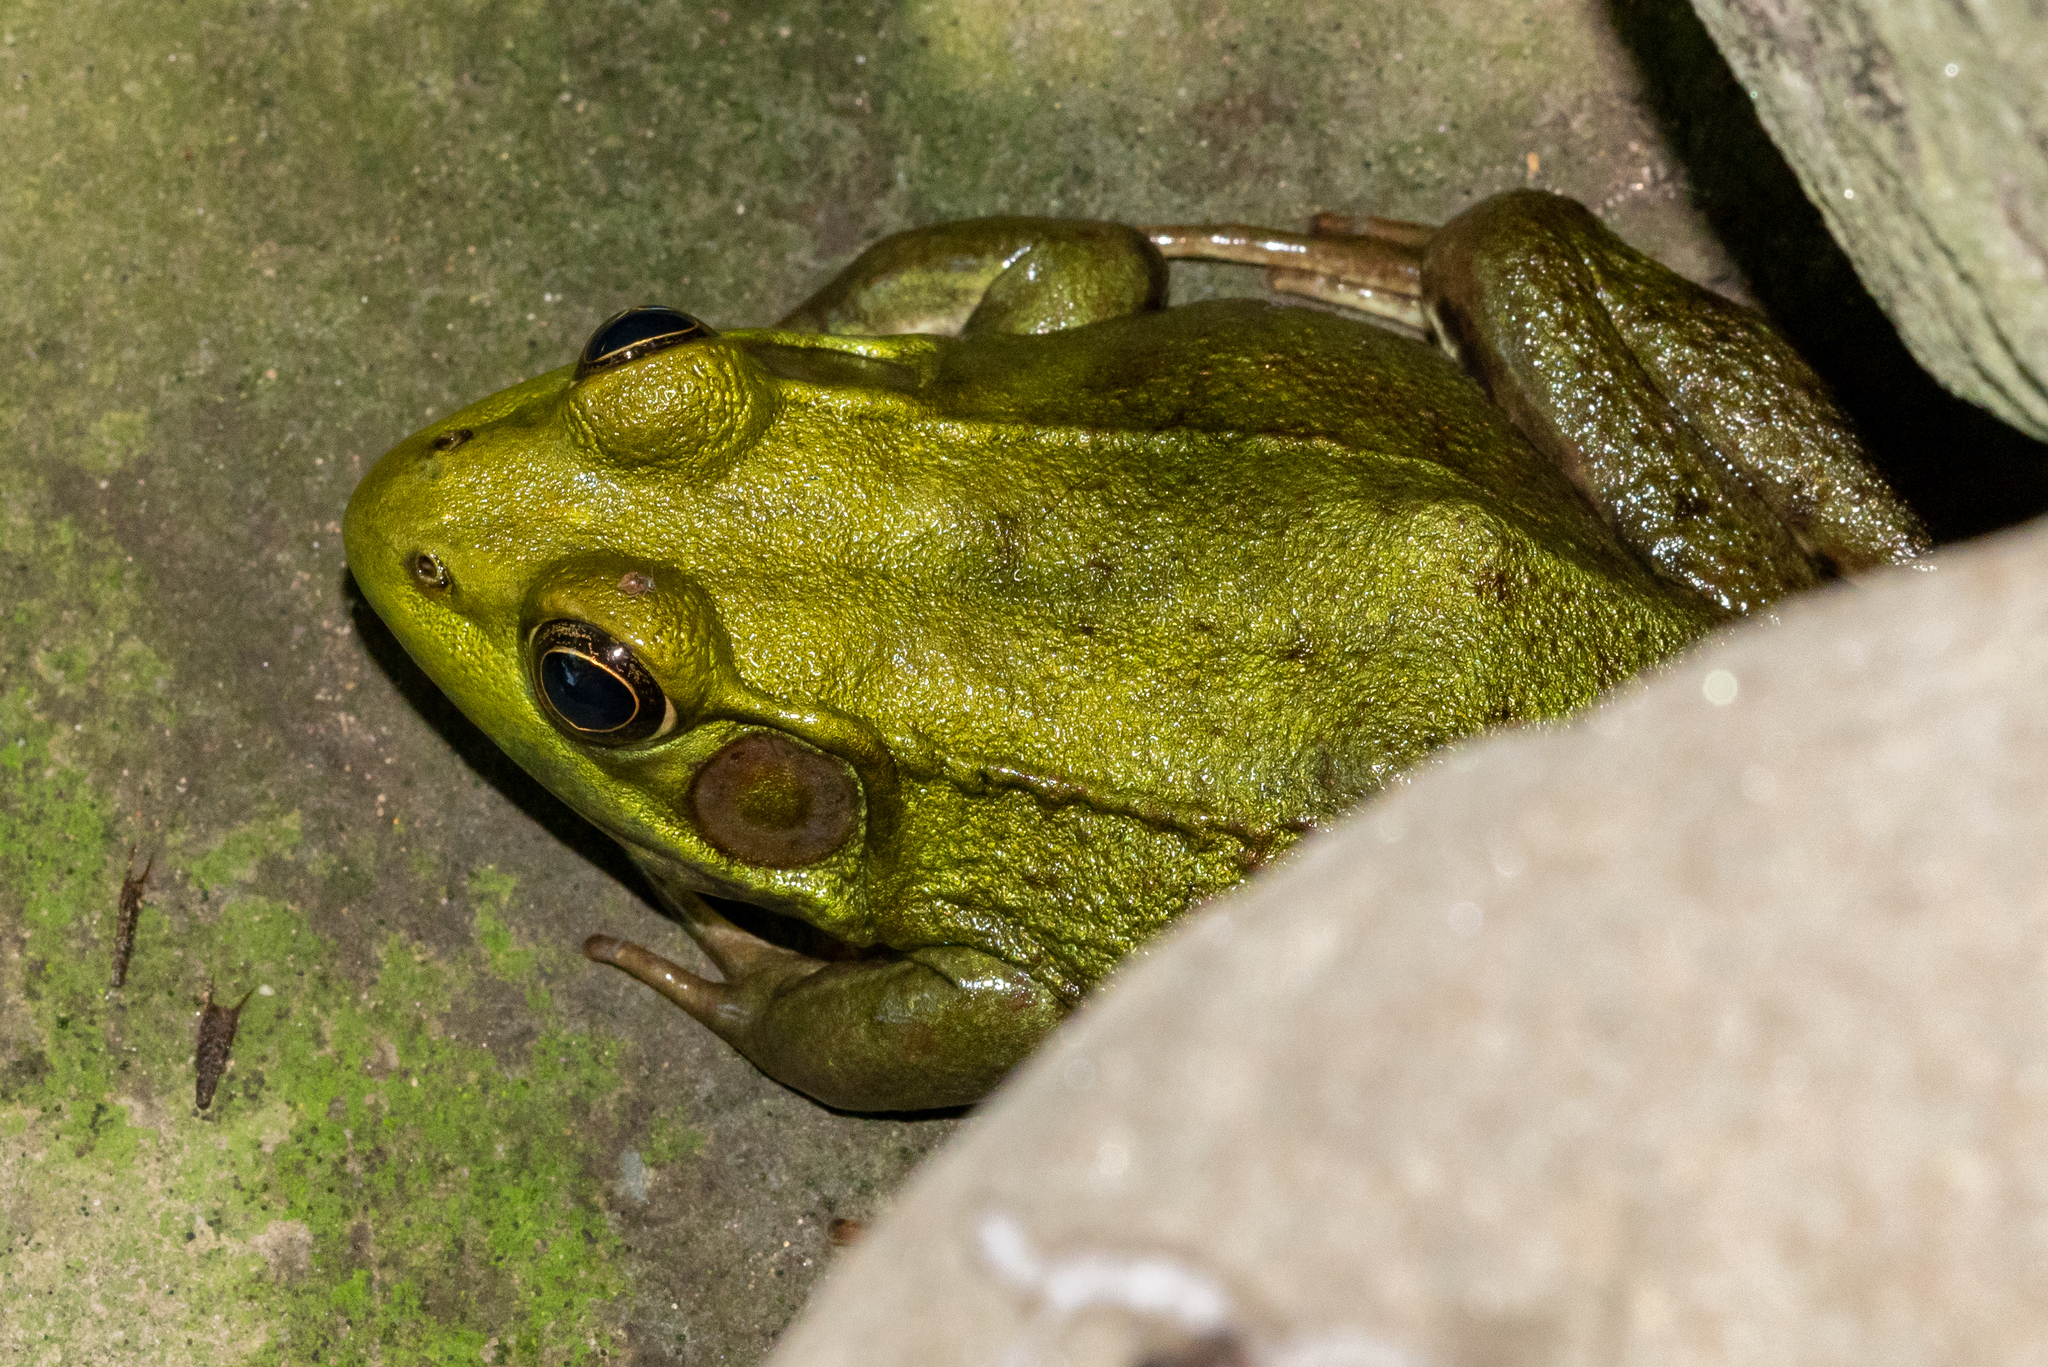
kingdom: Animalia
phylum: Chordata
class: Amphibia
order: Anura
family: Ranidae
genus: Lithobates
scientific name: Lithobates clamitans
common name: Green frog
